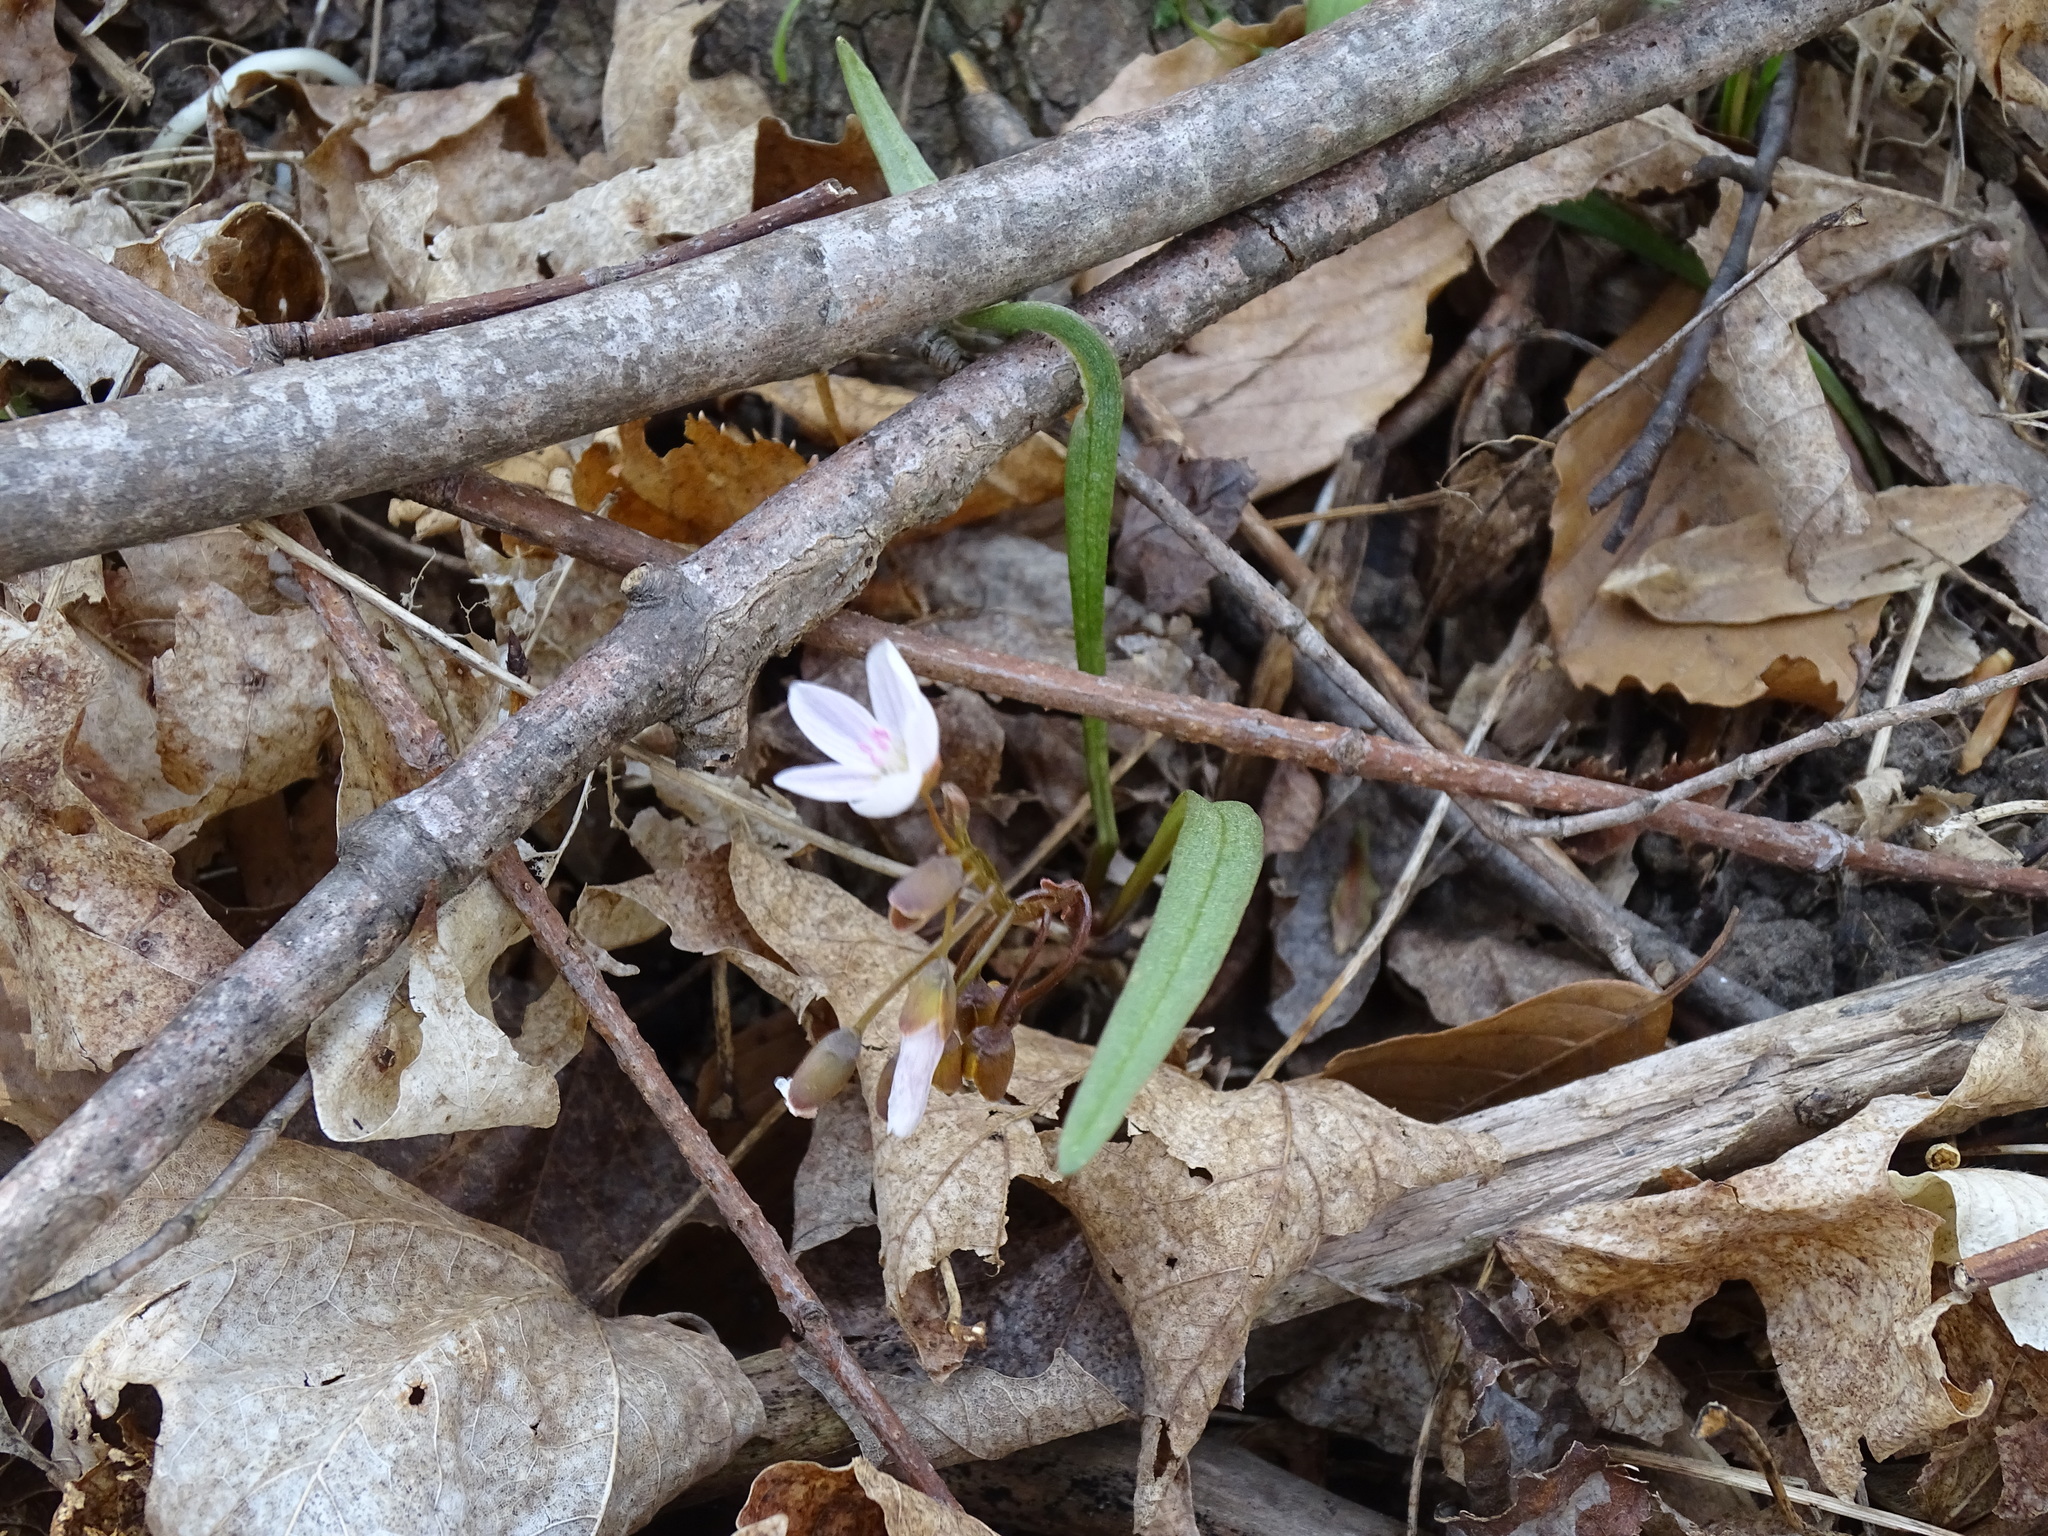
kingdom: Plantae
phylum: Tracheophyta
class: Magnoliopsida
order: Caryophyllales
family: Montiaceae
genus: Claytonia
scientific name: Claytonia virginica
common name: Virginia springbeauty
